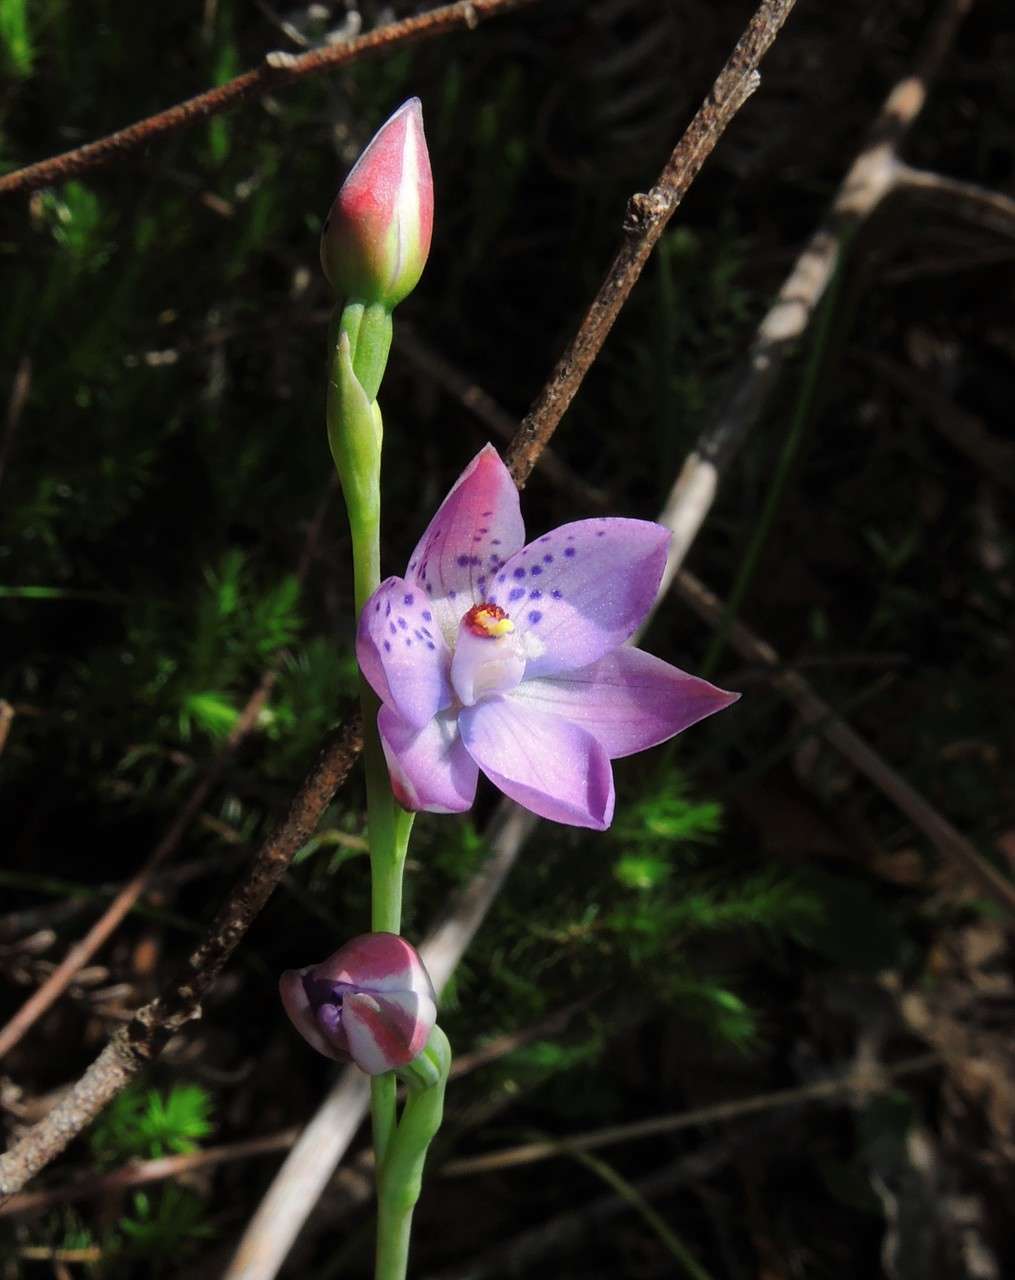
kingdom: Plantae
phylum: Tracheophyta
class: Liliopsida
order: Asparagales
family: Orchidaceae
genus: Thelymitra
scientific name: Thelymitra ixioides
